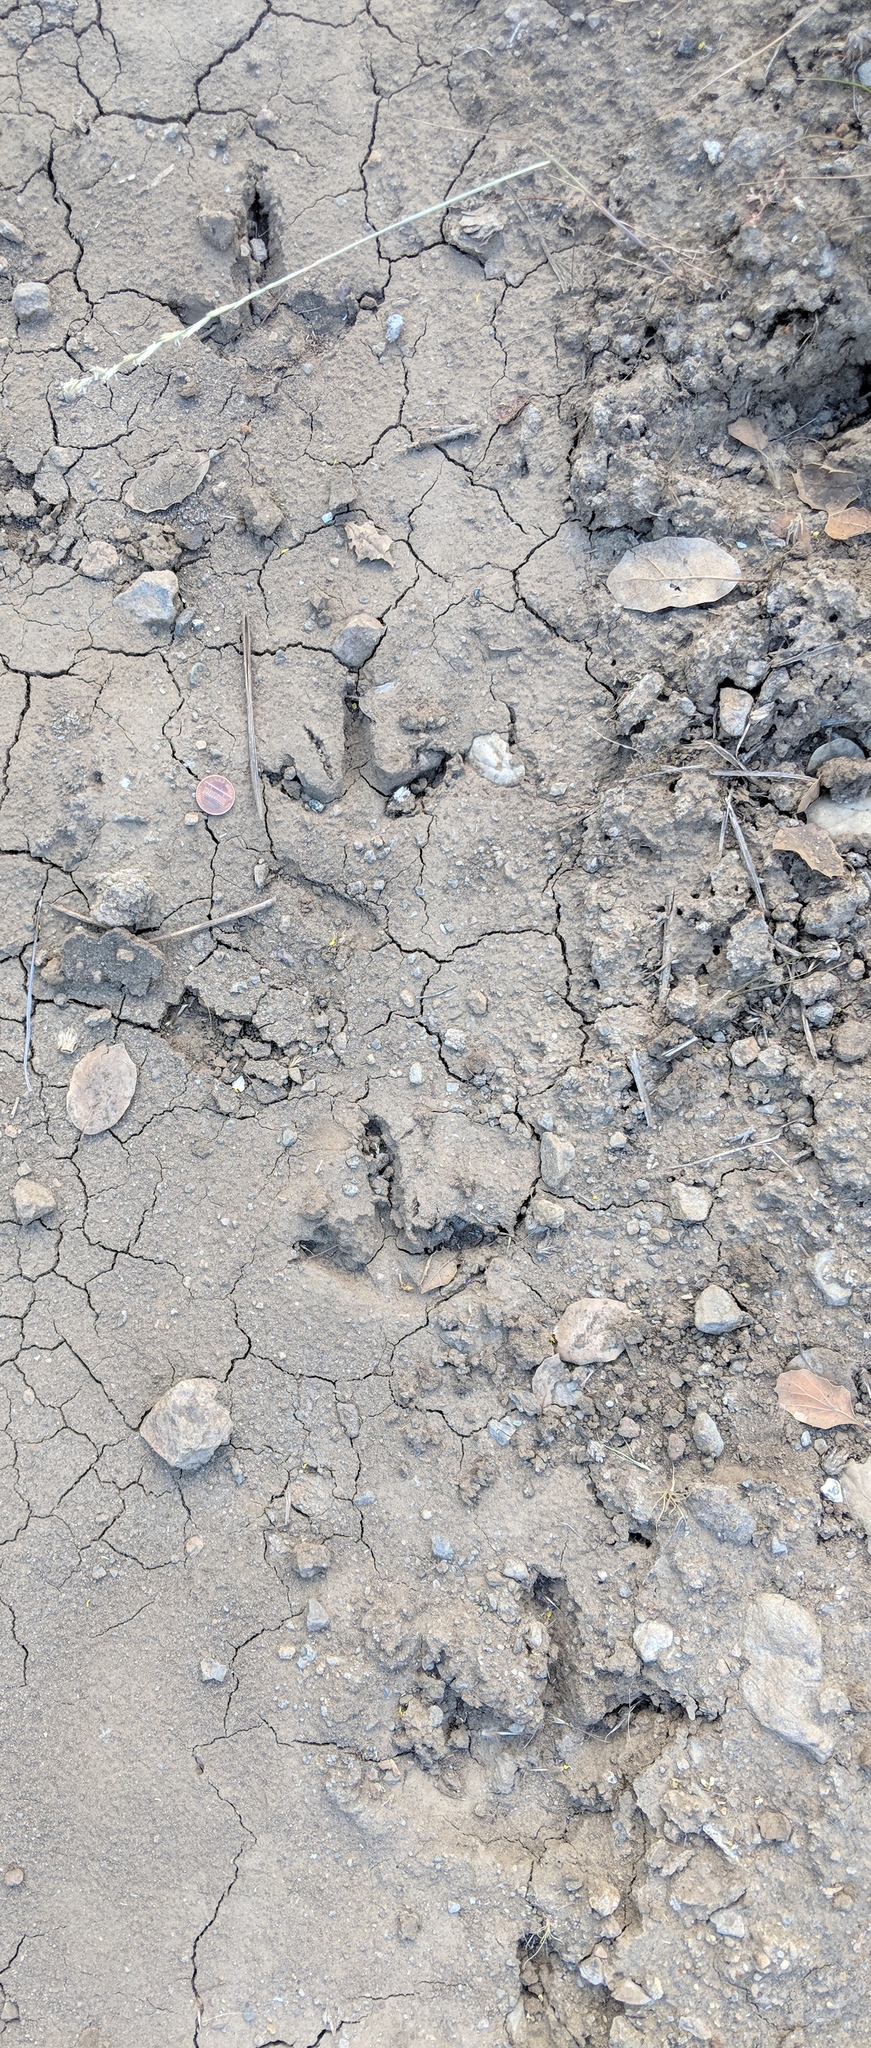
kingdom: Animalia
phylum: Chordata
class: Aves
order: Galliformes
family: Phasianidae
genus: Meleagris
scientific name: Meleagris gallopavo
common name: Wild turkey
